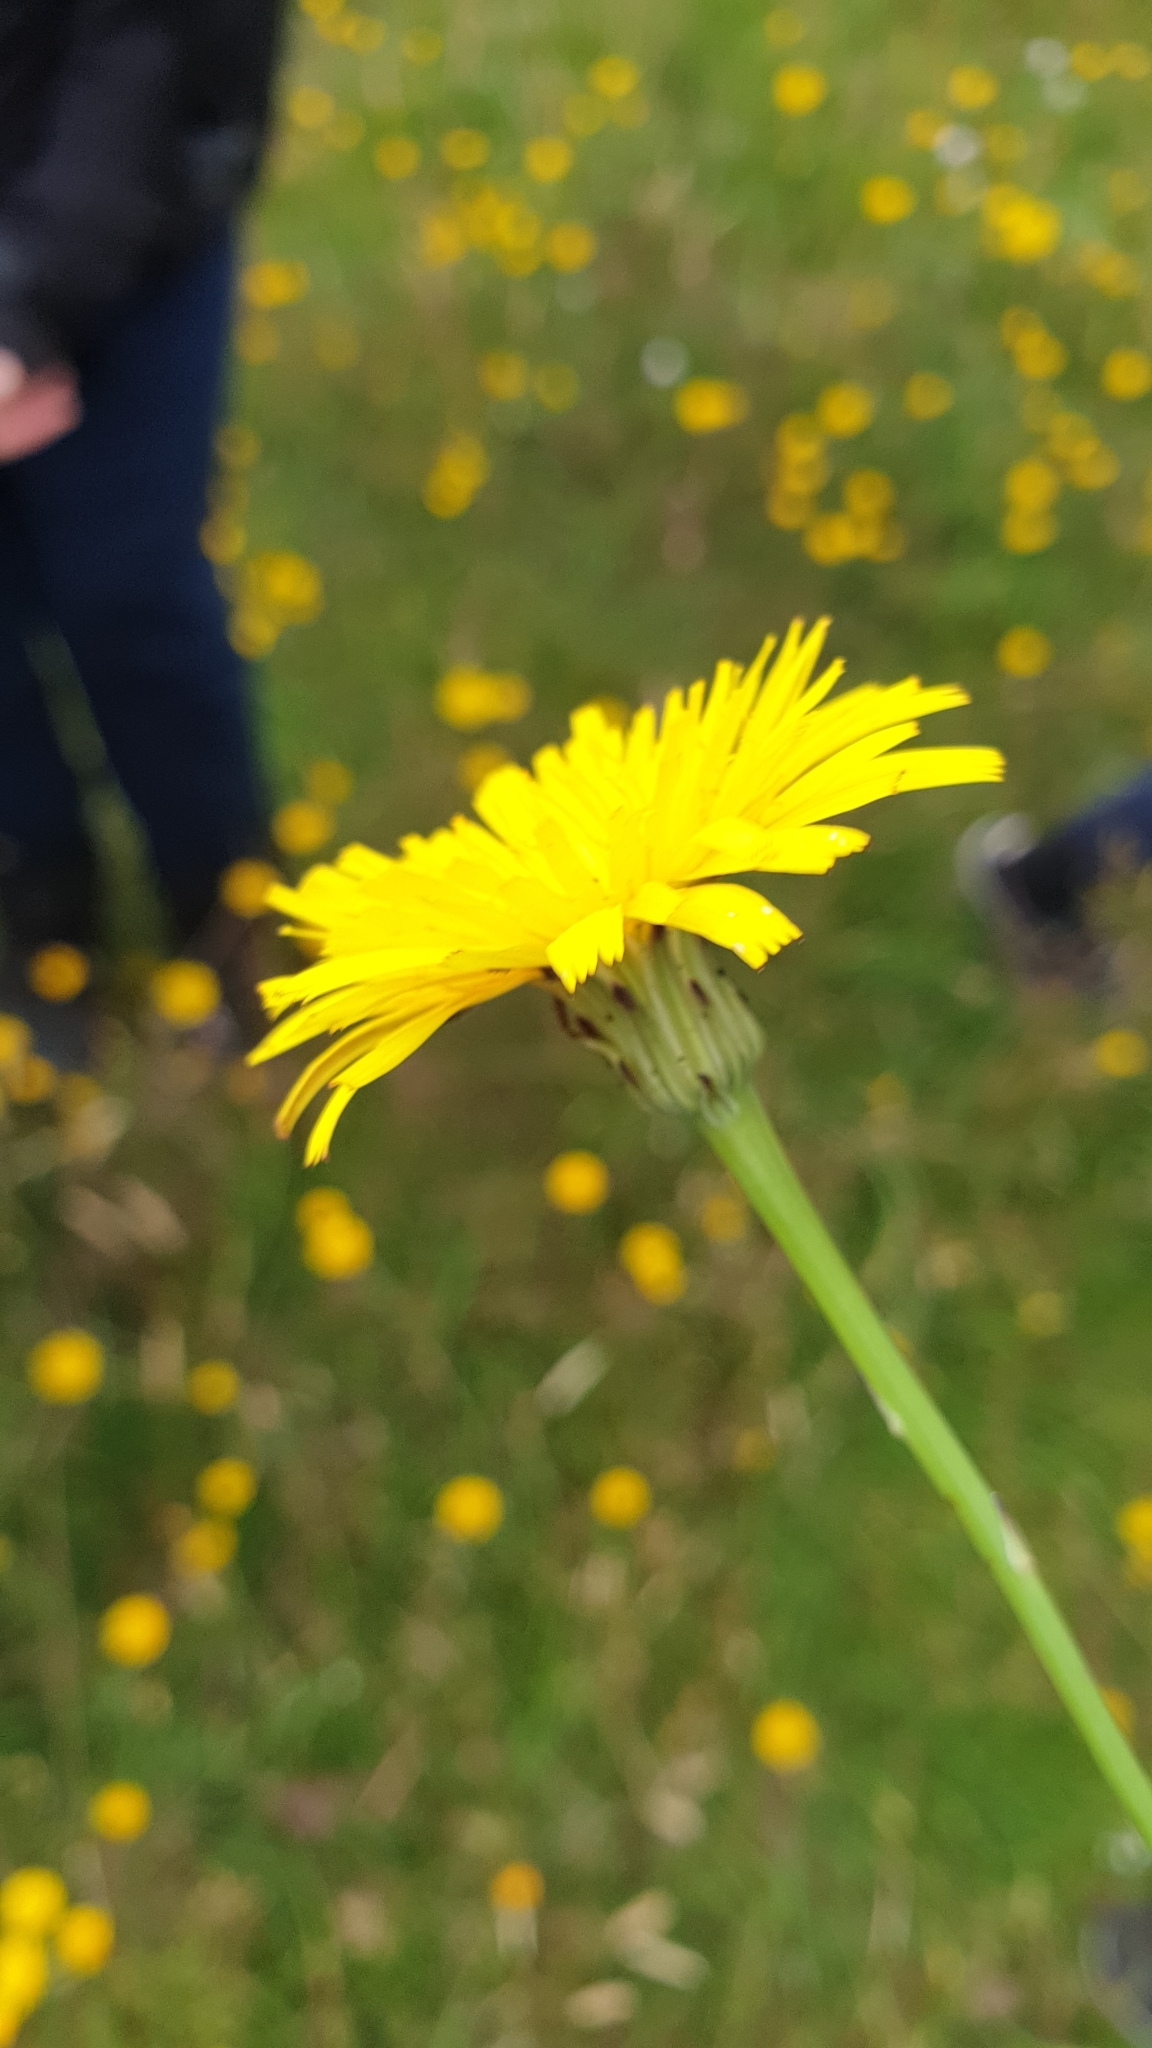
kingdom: Plantae
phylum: Tracheophyta
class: Magnoliopsida
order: Asterales
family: Asteraceae
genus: Hypochaeris
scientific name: Hypochaeris radicata
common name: Flatweed
